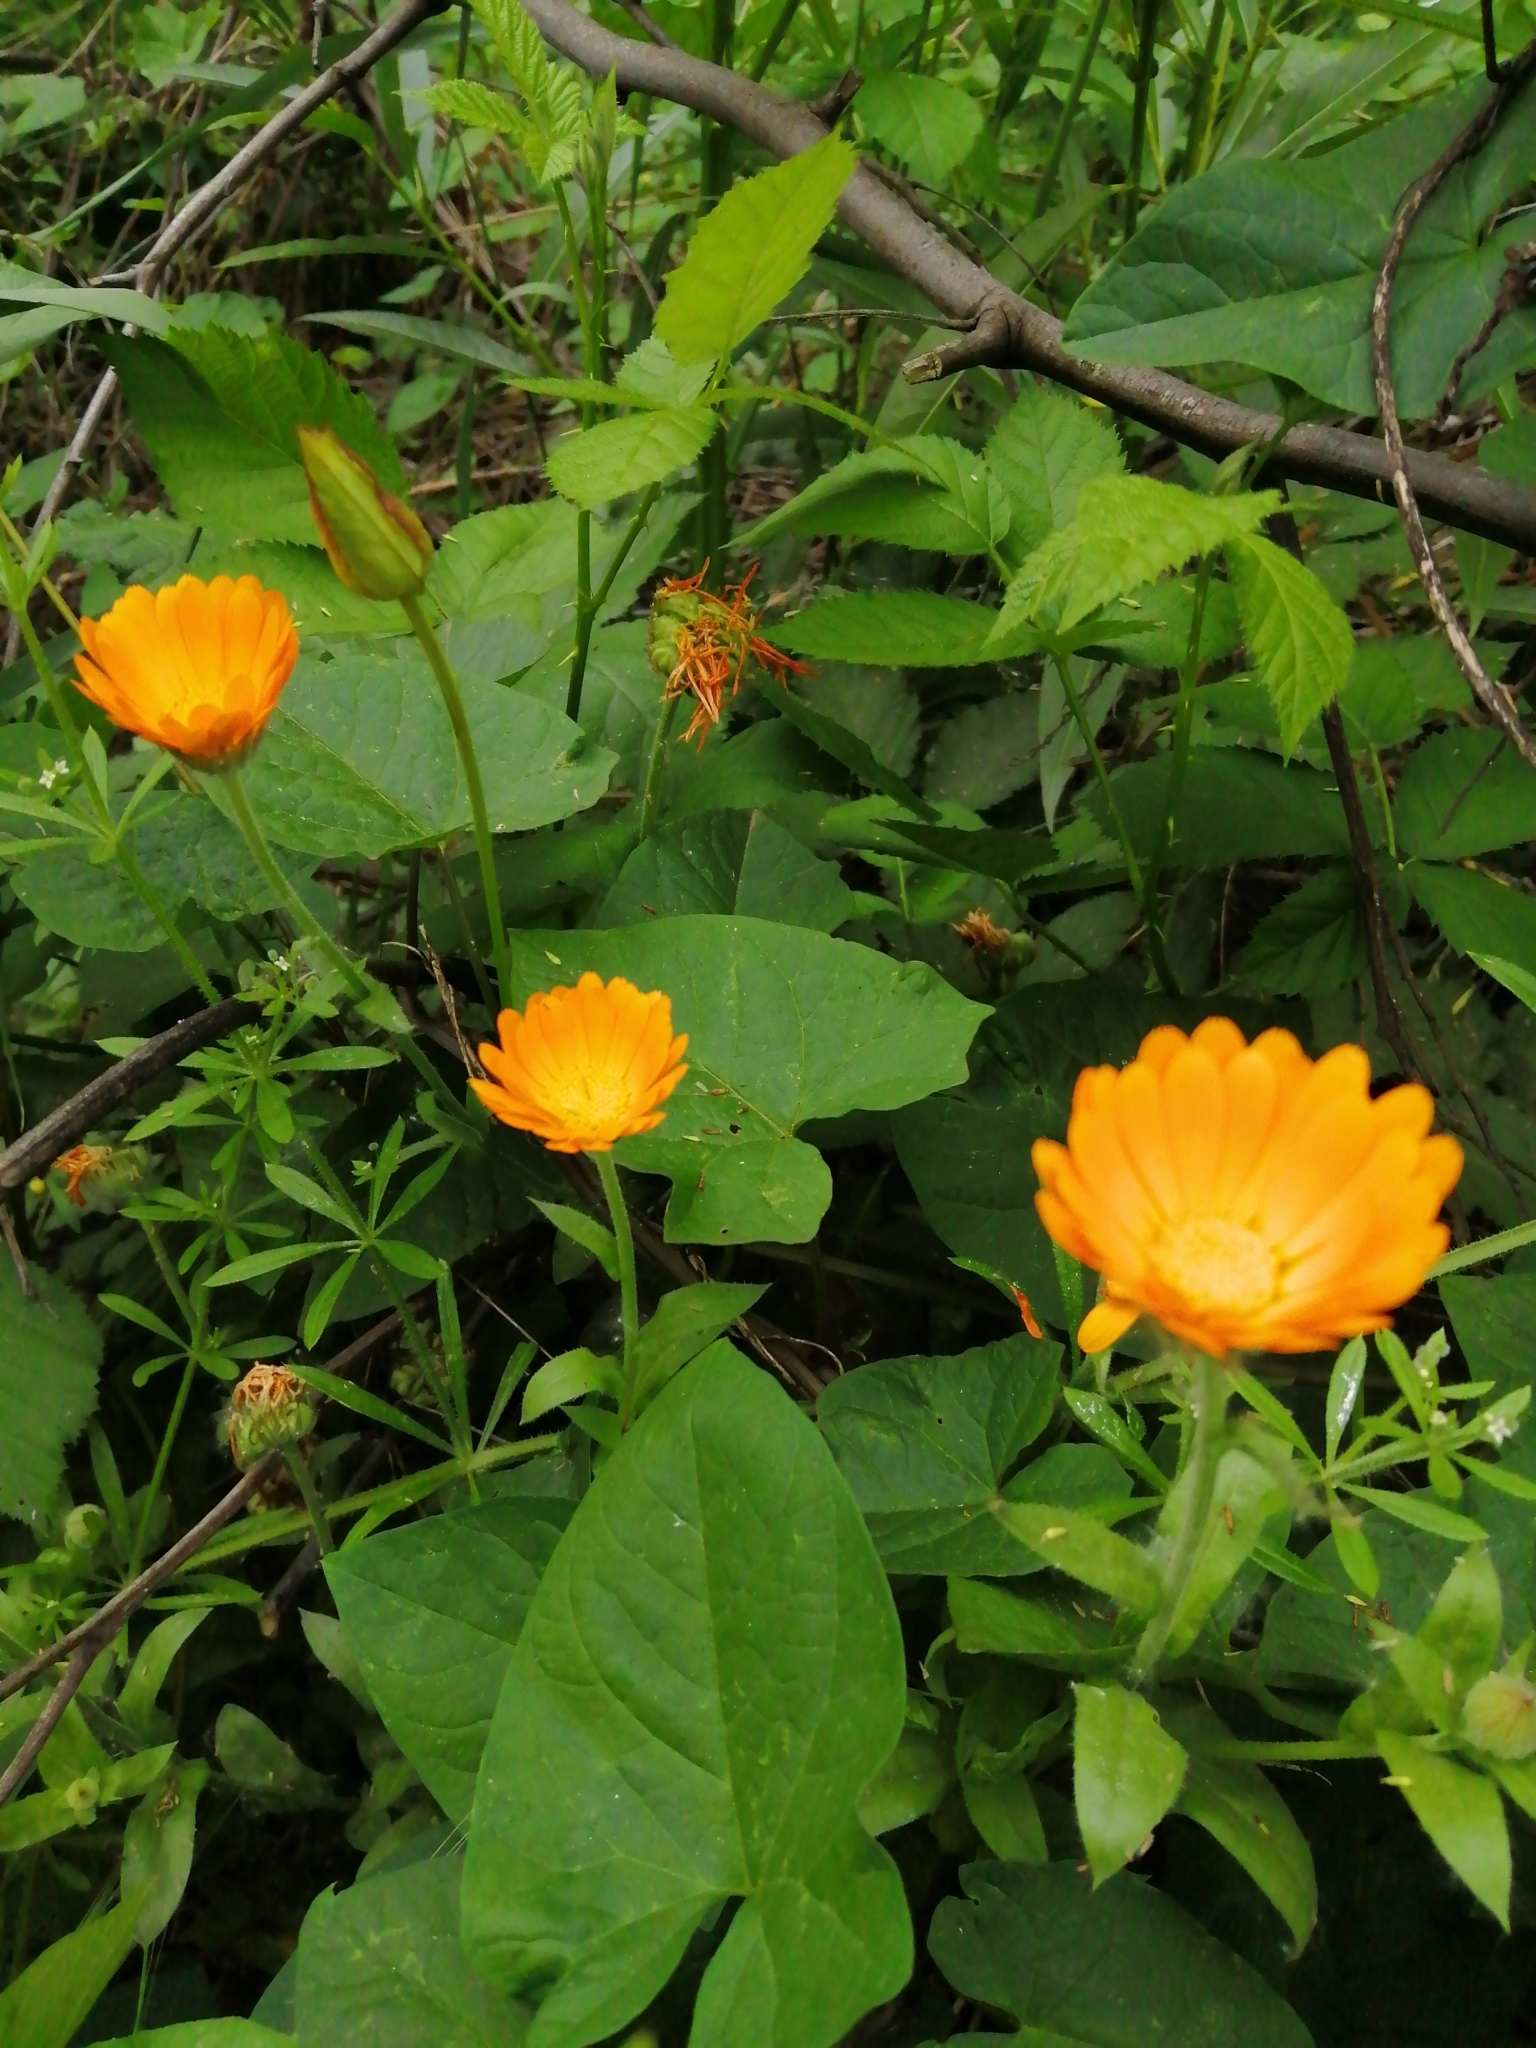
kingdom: Plantae
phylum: Tracheophyta
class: Magnoliopsida
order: Asterales
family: Asteraceae
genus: Calendula
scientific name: Calendula officinalis
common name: Pot marigold
